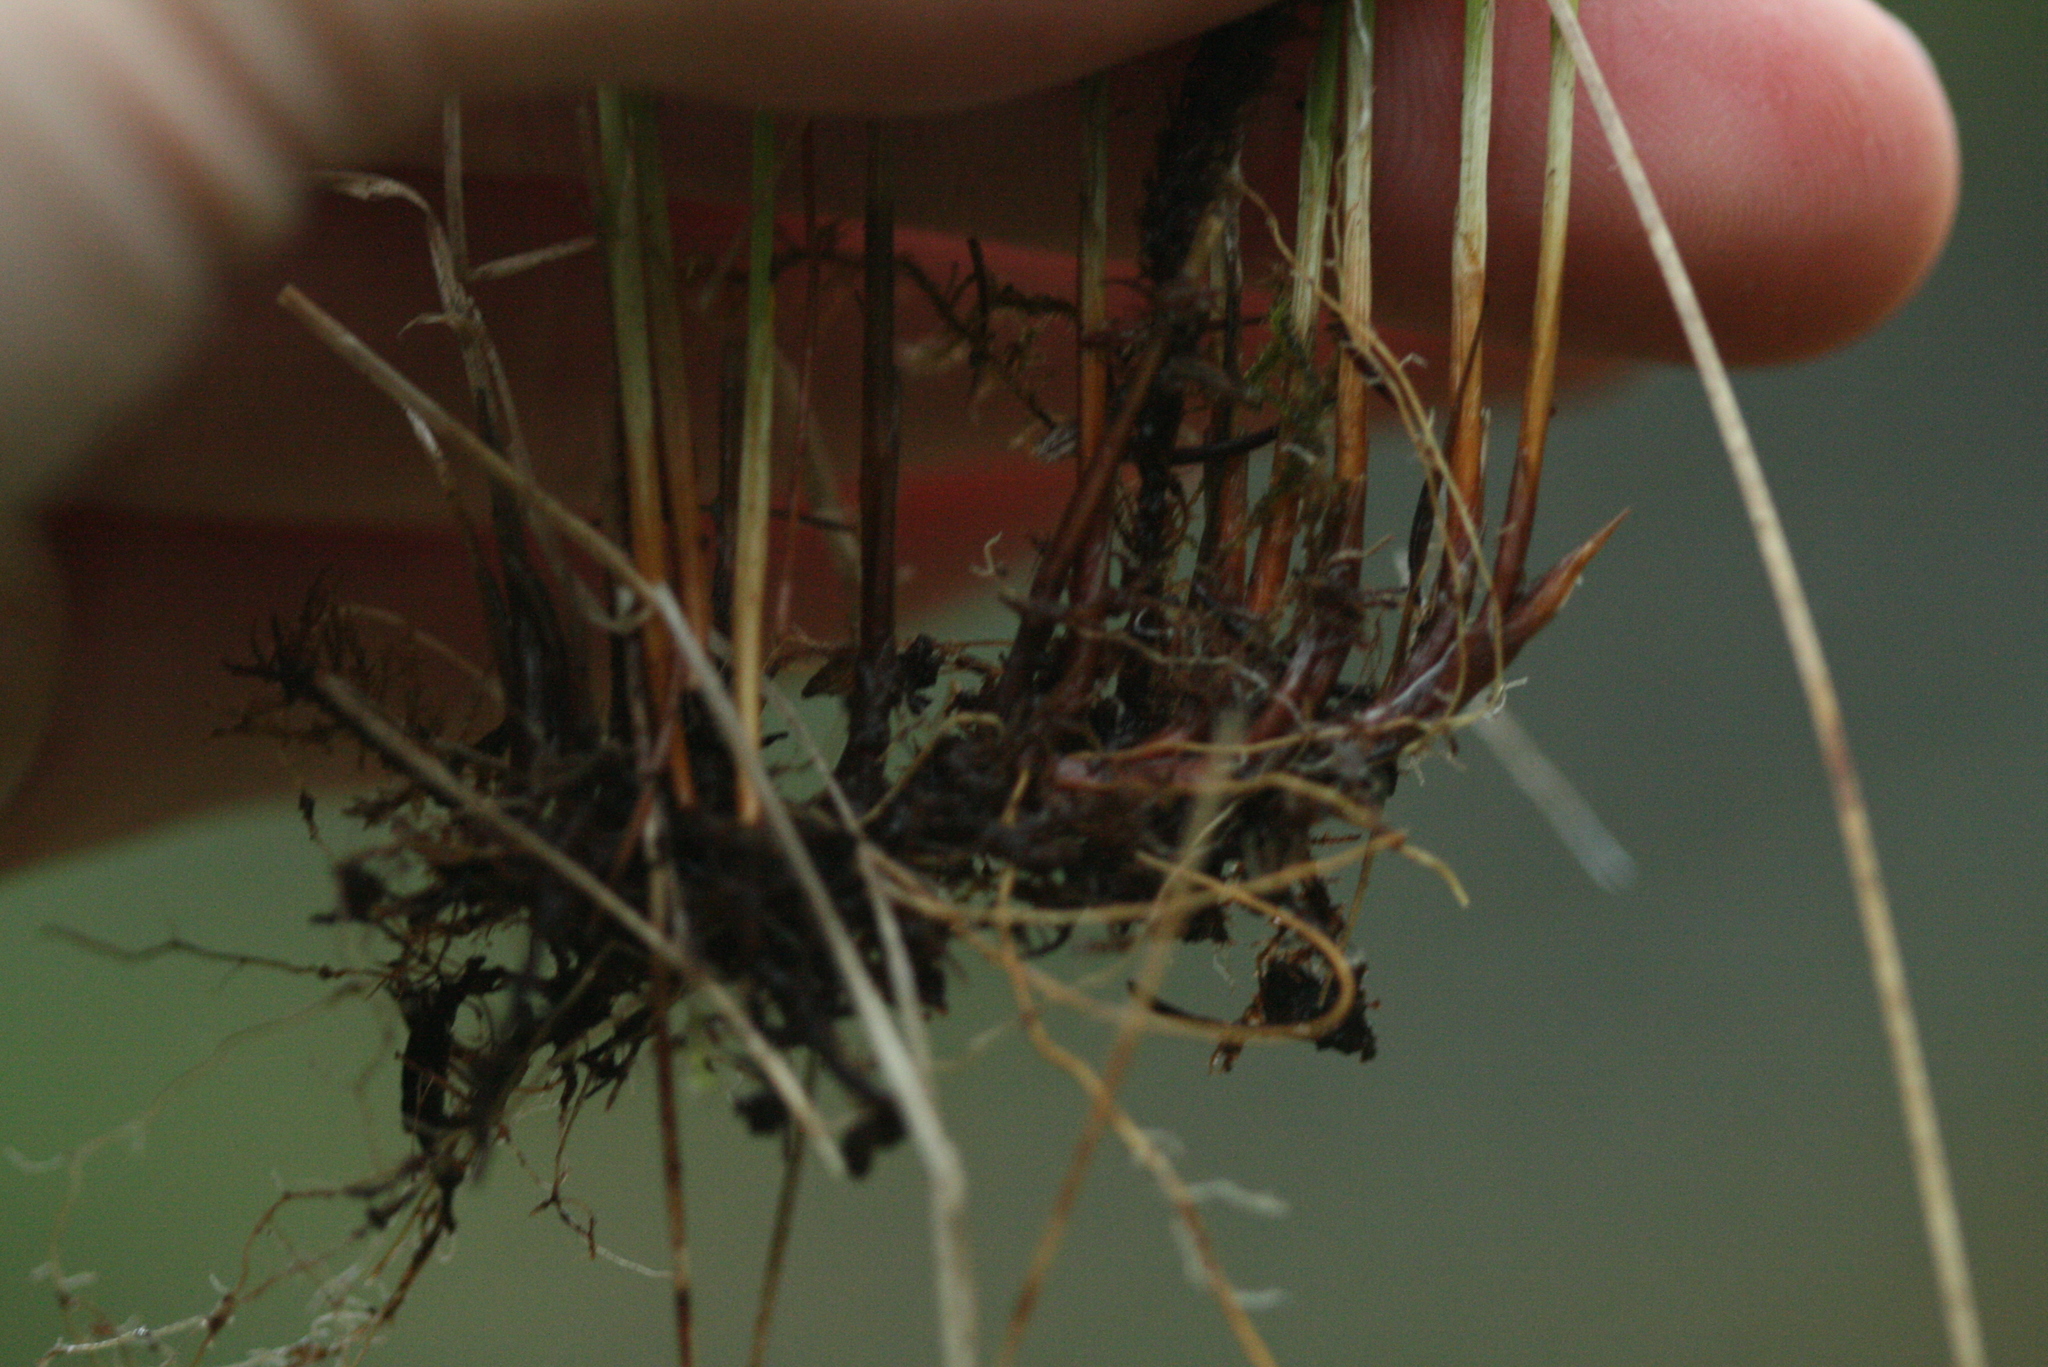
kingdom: Plantae
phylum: Tracheophyta
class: Liliopsida
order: Poales
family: Cyperaceae
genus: Trichophorum
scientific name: Trichophorum alpinum
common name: Alpine bulrush
